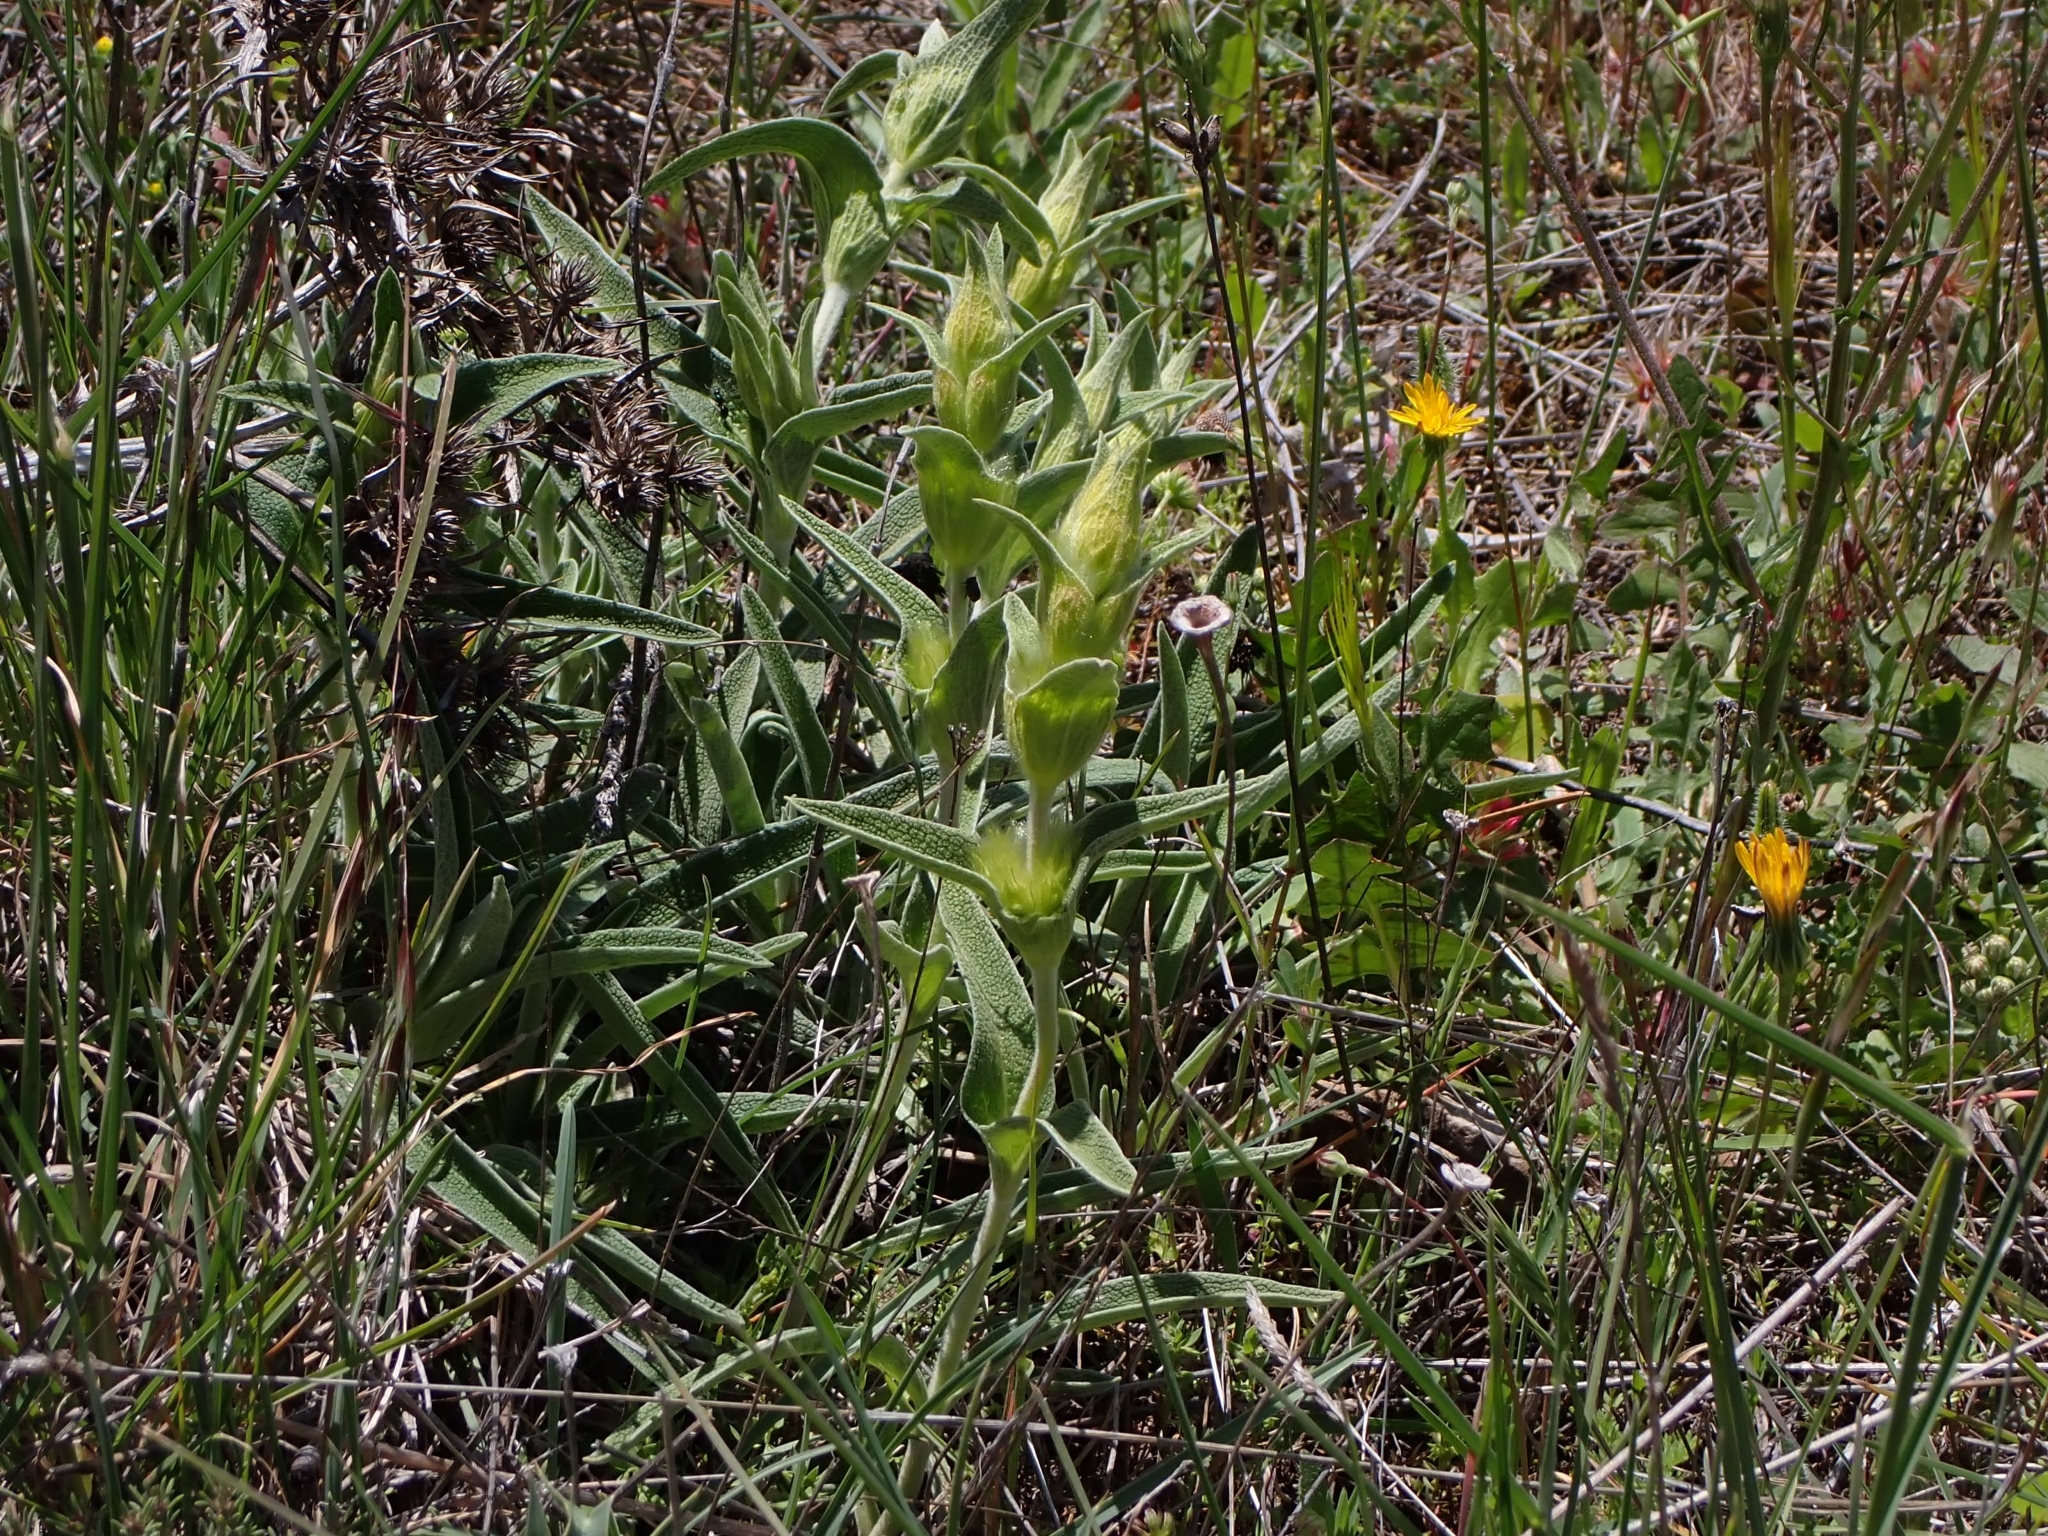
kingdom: Plantae
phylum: Tracheophyta
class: Magnoliopsida
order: Lamiales
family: Lamiaceae
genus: Phlomis
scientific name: Phlomis lychnitis
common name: Lampwickplant
